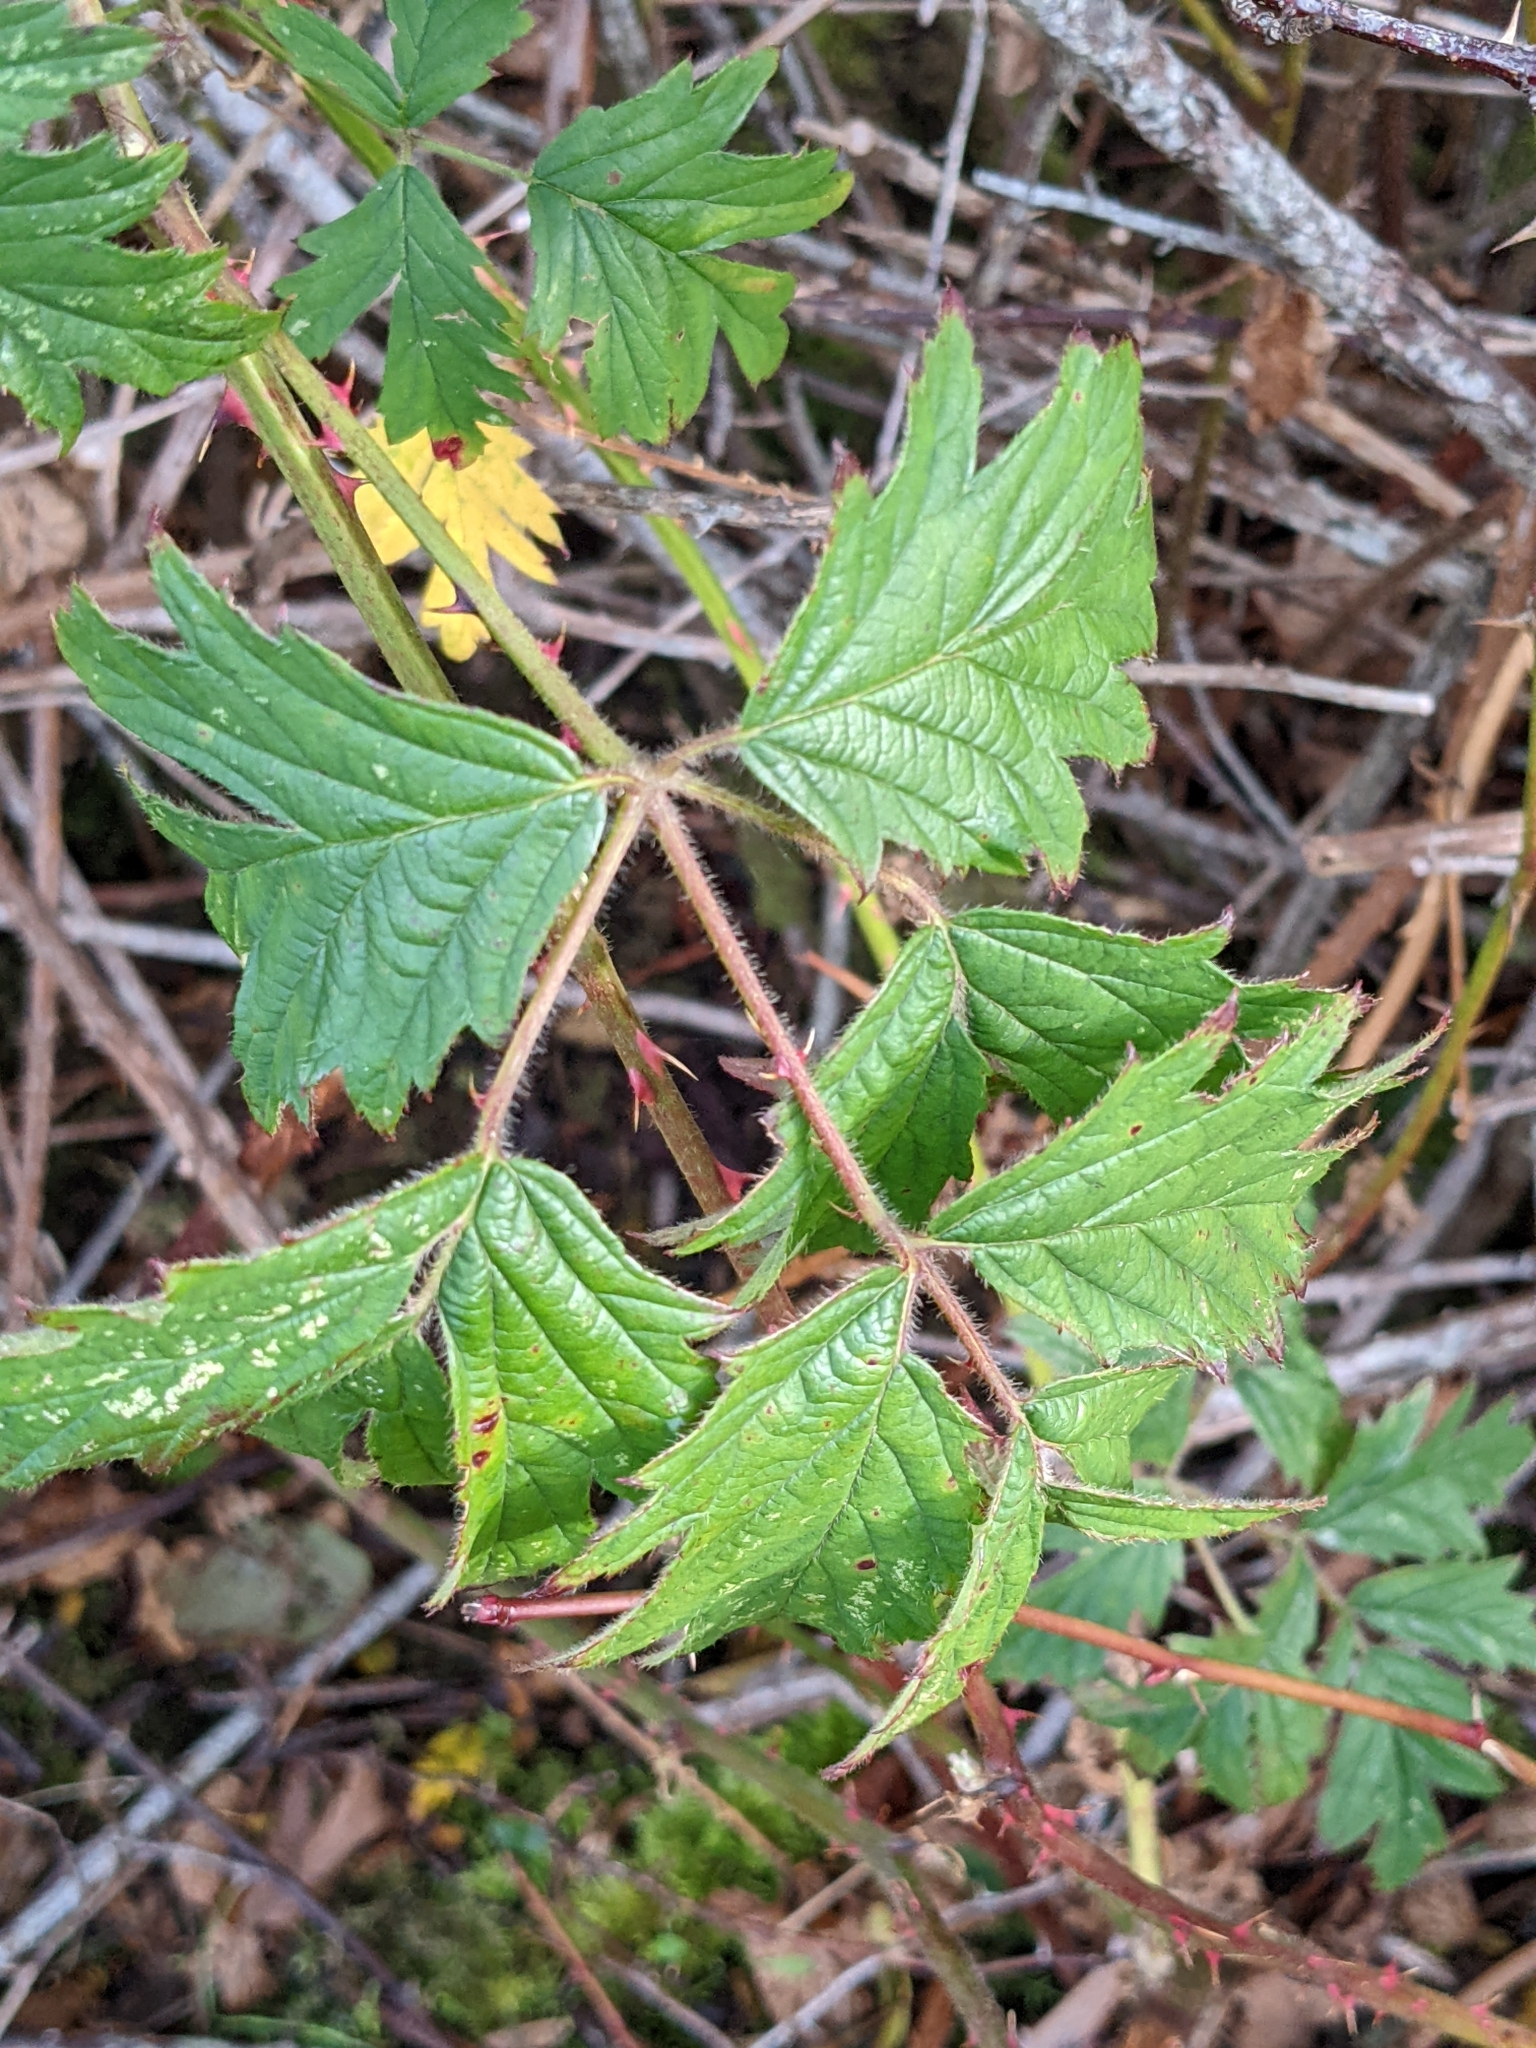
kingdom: Plantae
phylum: Tracheophyta
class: Magnoliopsida
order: Rosales
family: Rosaceae
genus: Rubus
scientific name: Rubus laciniatus
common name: Evergreen blackberry
